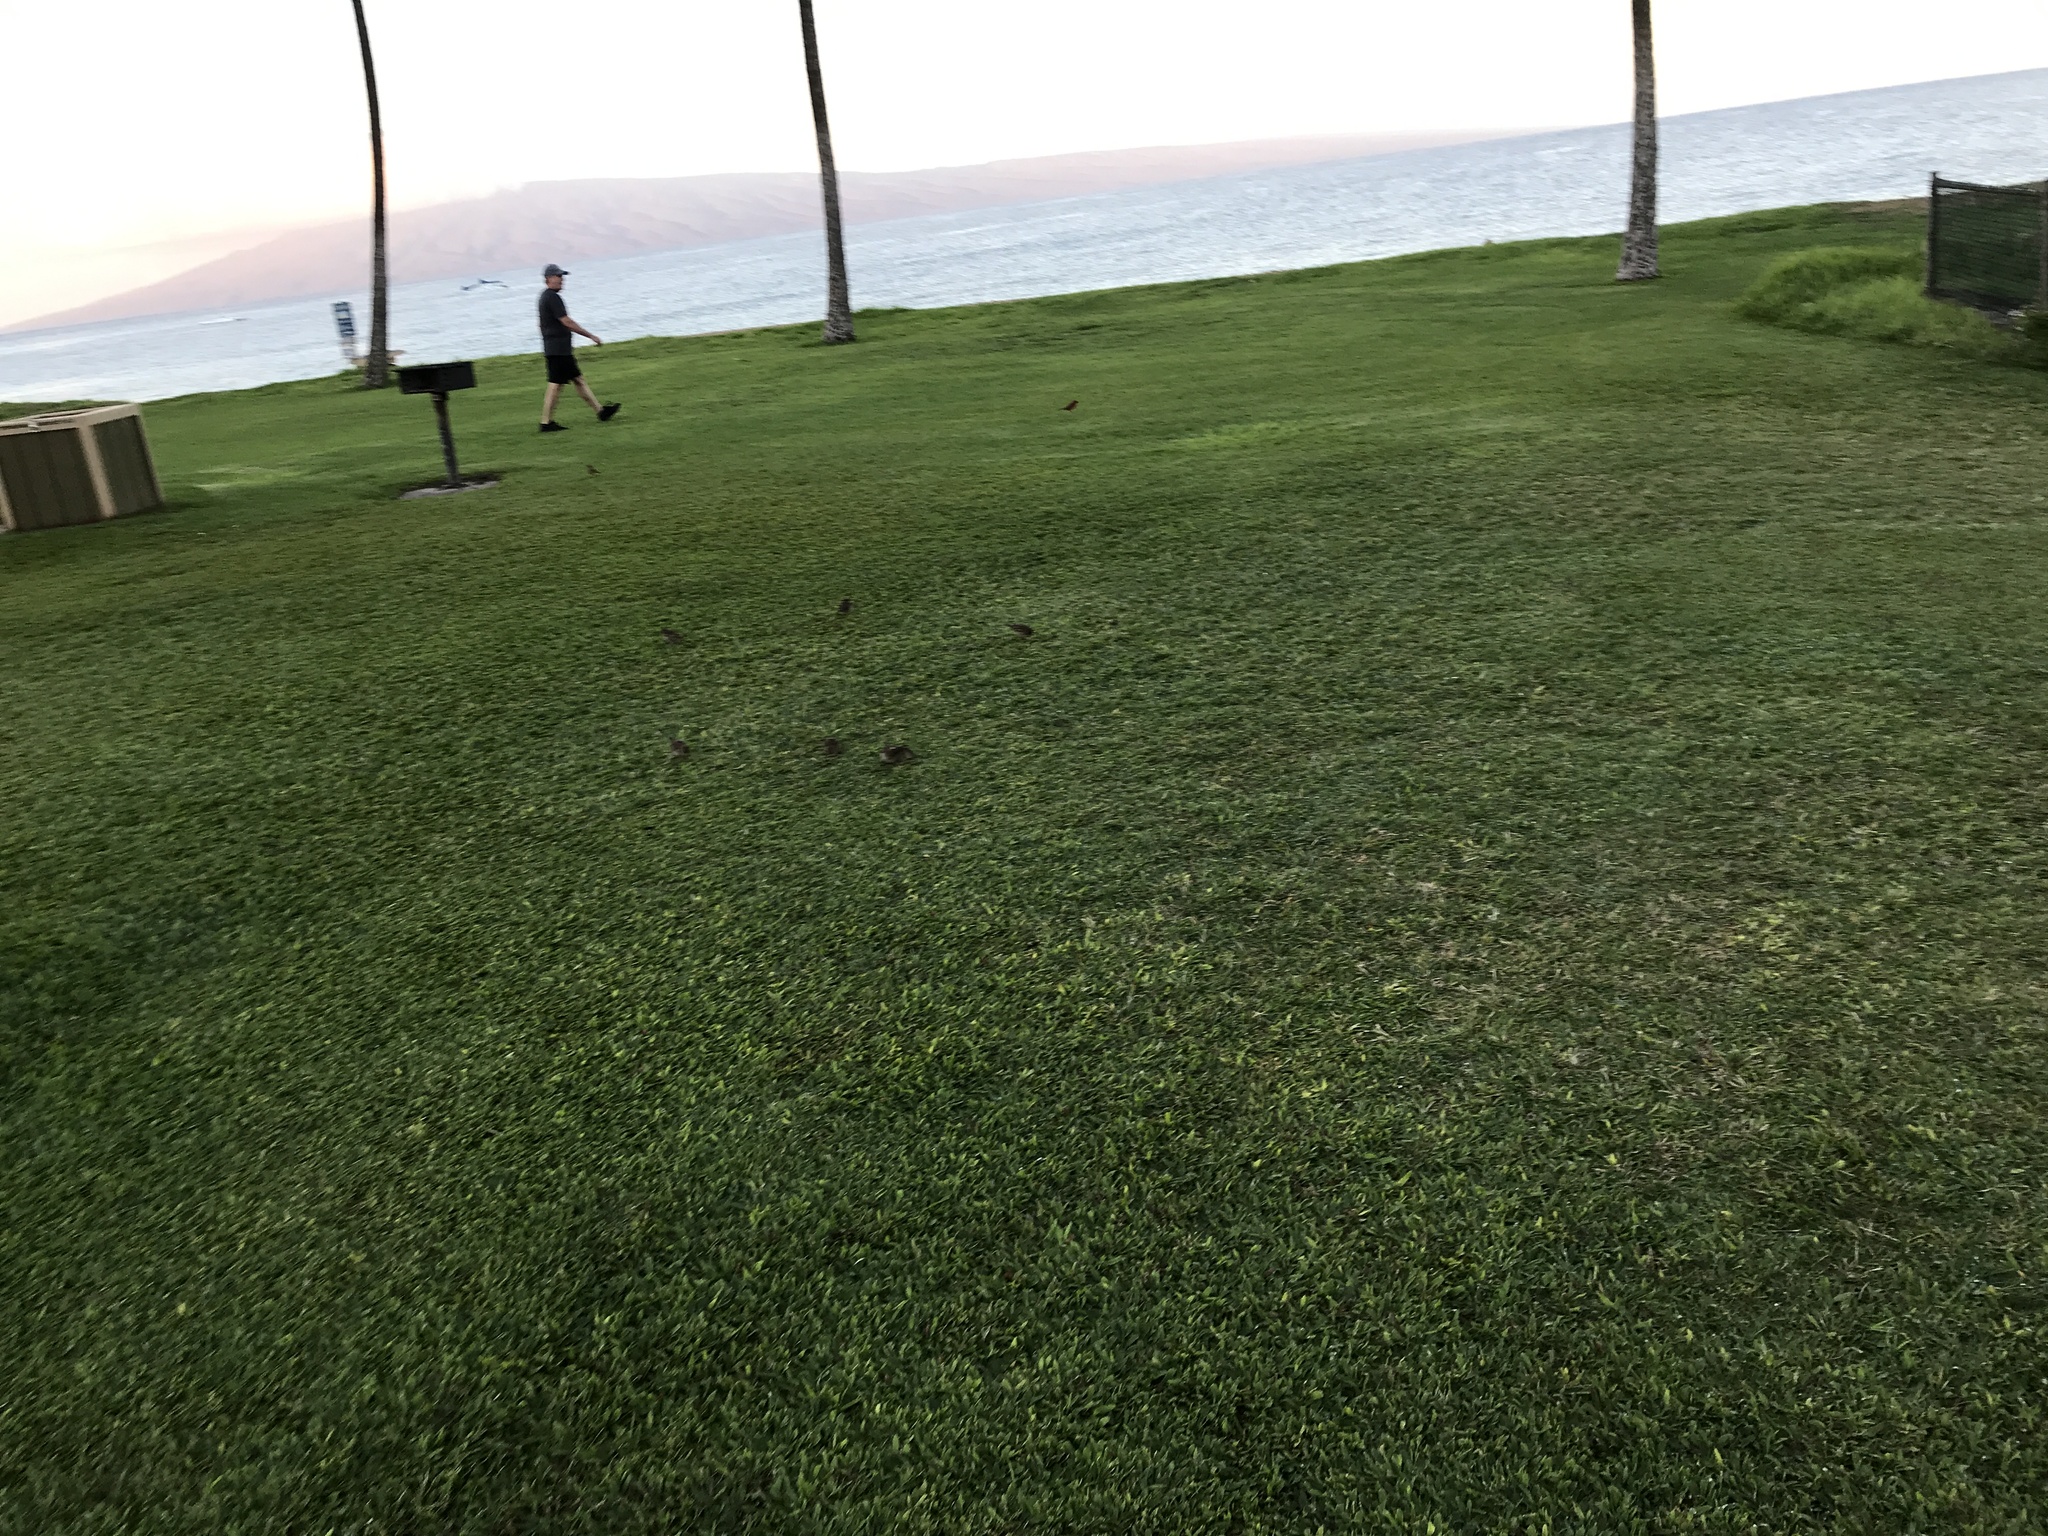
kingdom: Animalia
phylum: Chordata
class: Aves
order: Passeriformes
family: Cardinalidae
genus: Cardinalis
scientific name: Cardinalis cardinalis
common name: Northern cardinal
